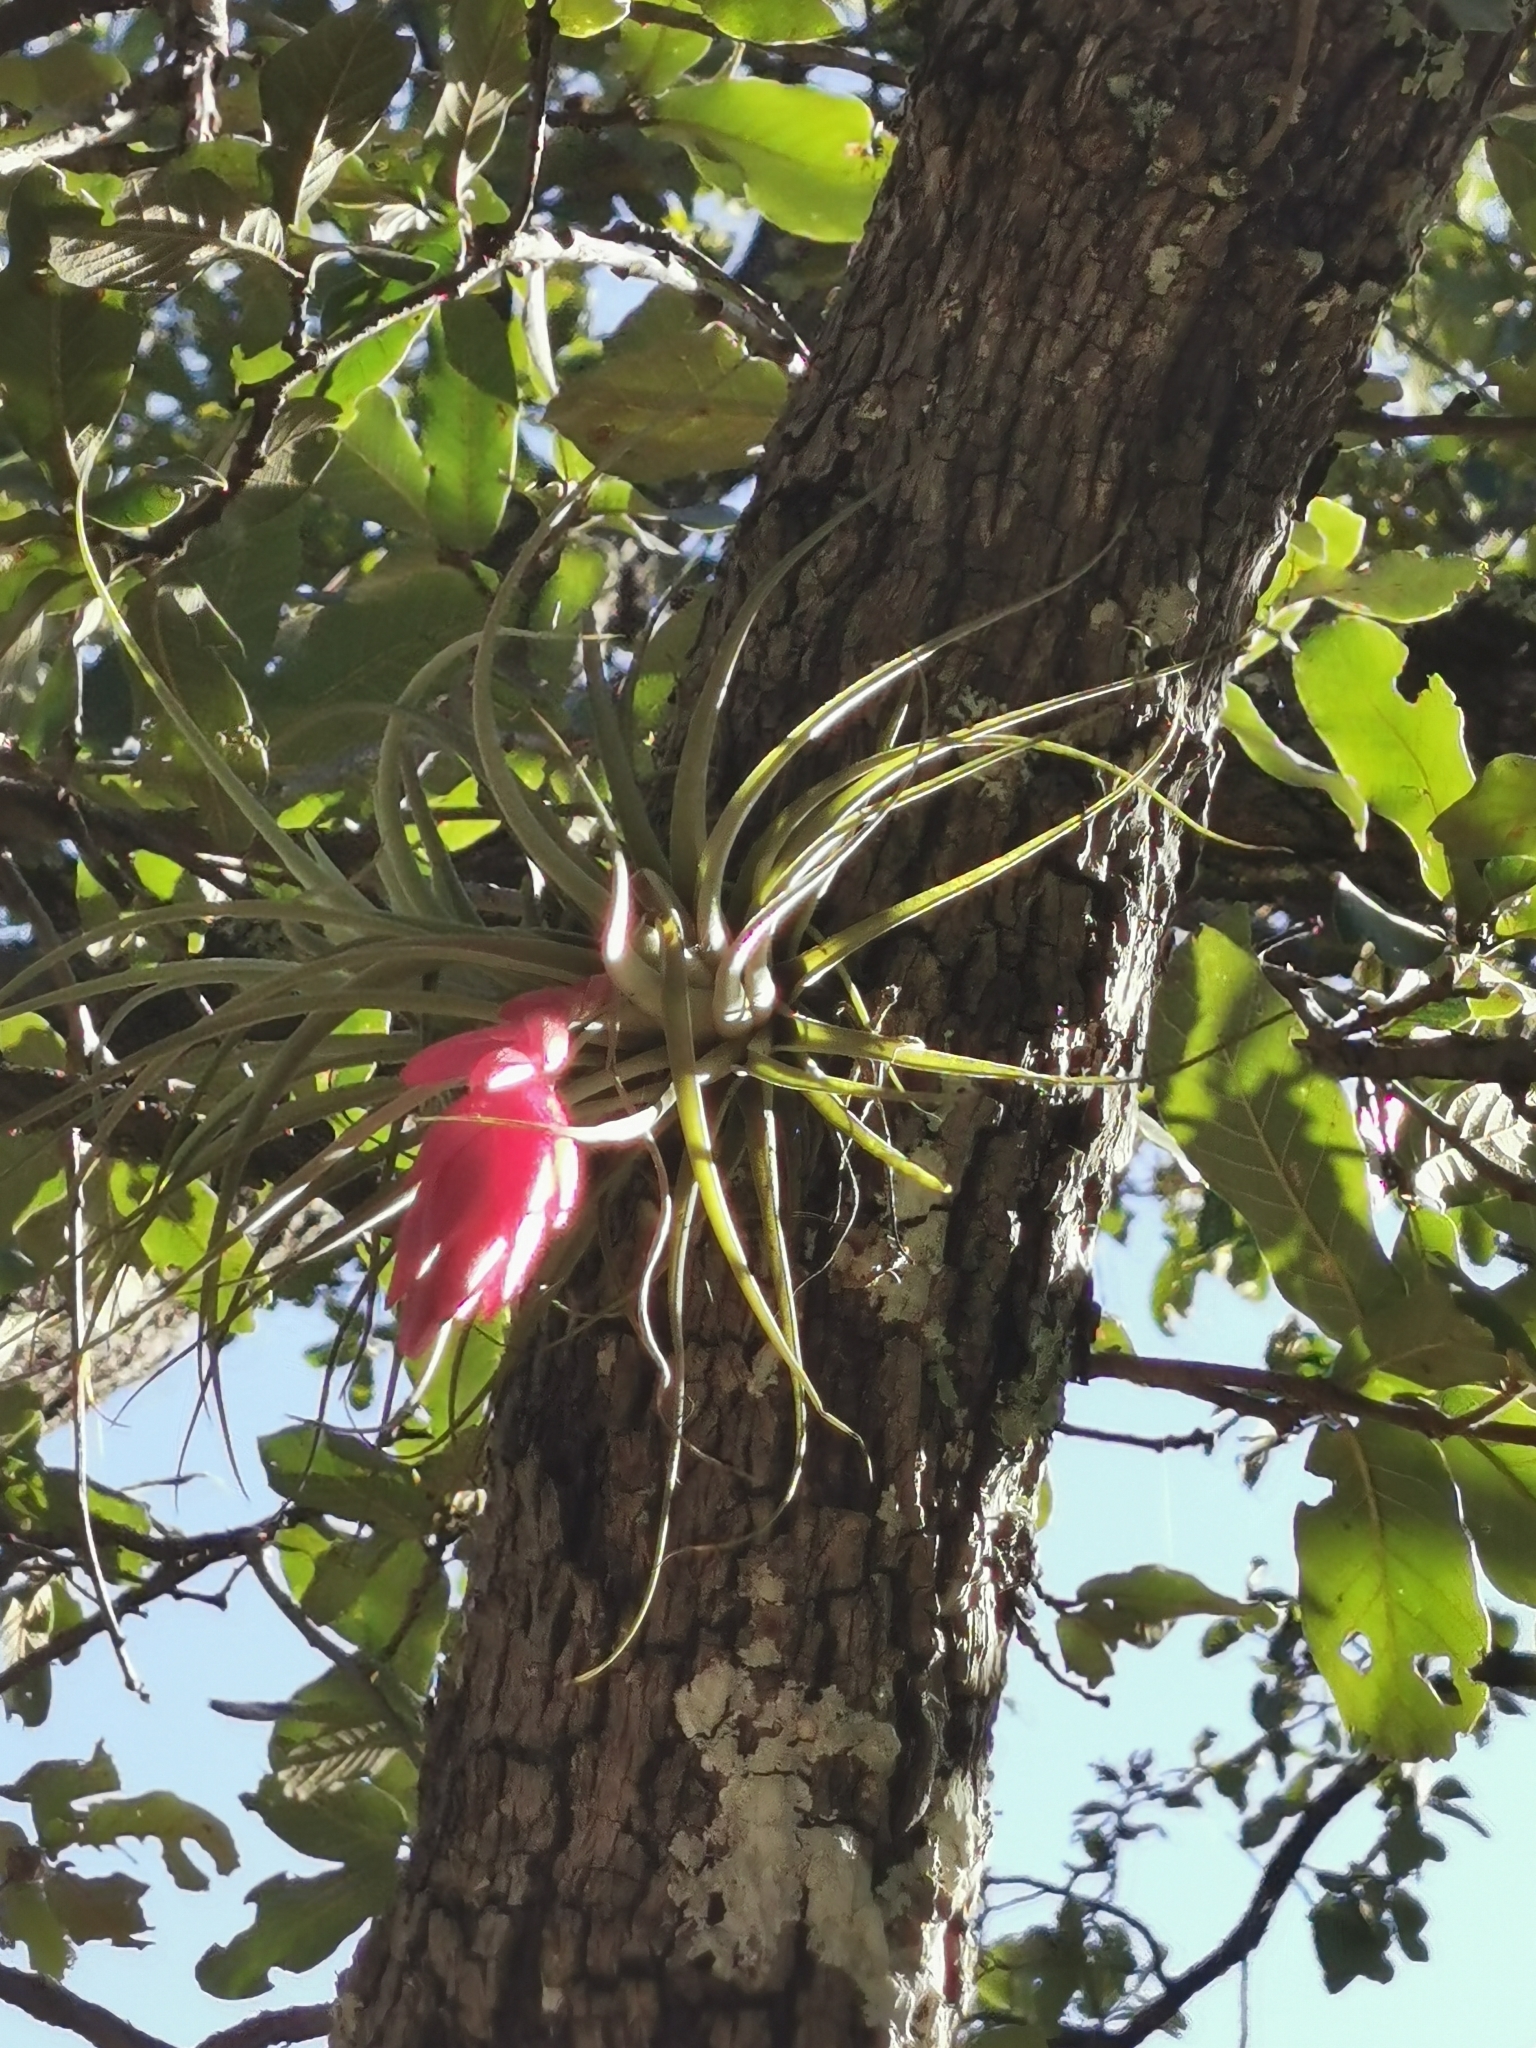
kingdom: Plantae
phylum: Tracheophyta
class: Liliopsida
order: Poales
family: Bromeliaceae
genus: Tillandsia
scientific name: Tillandsia erubescens
